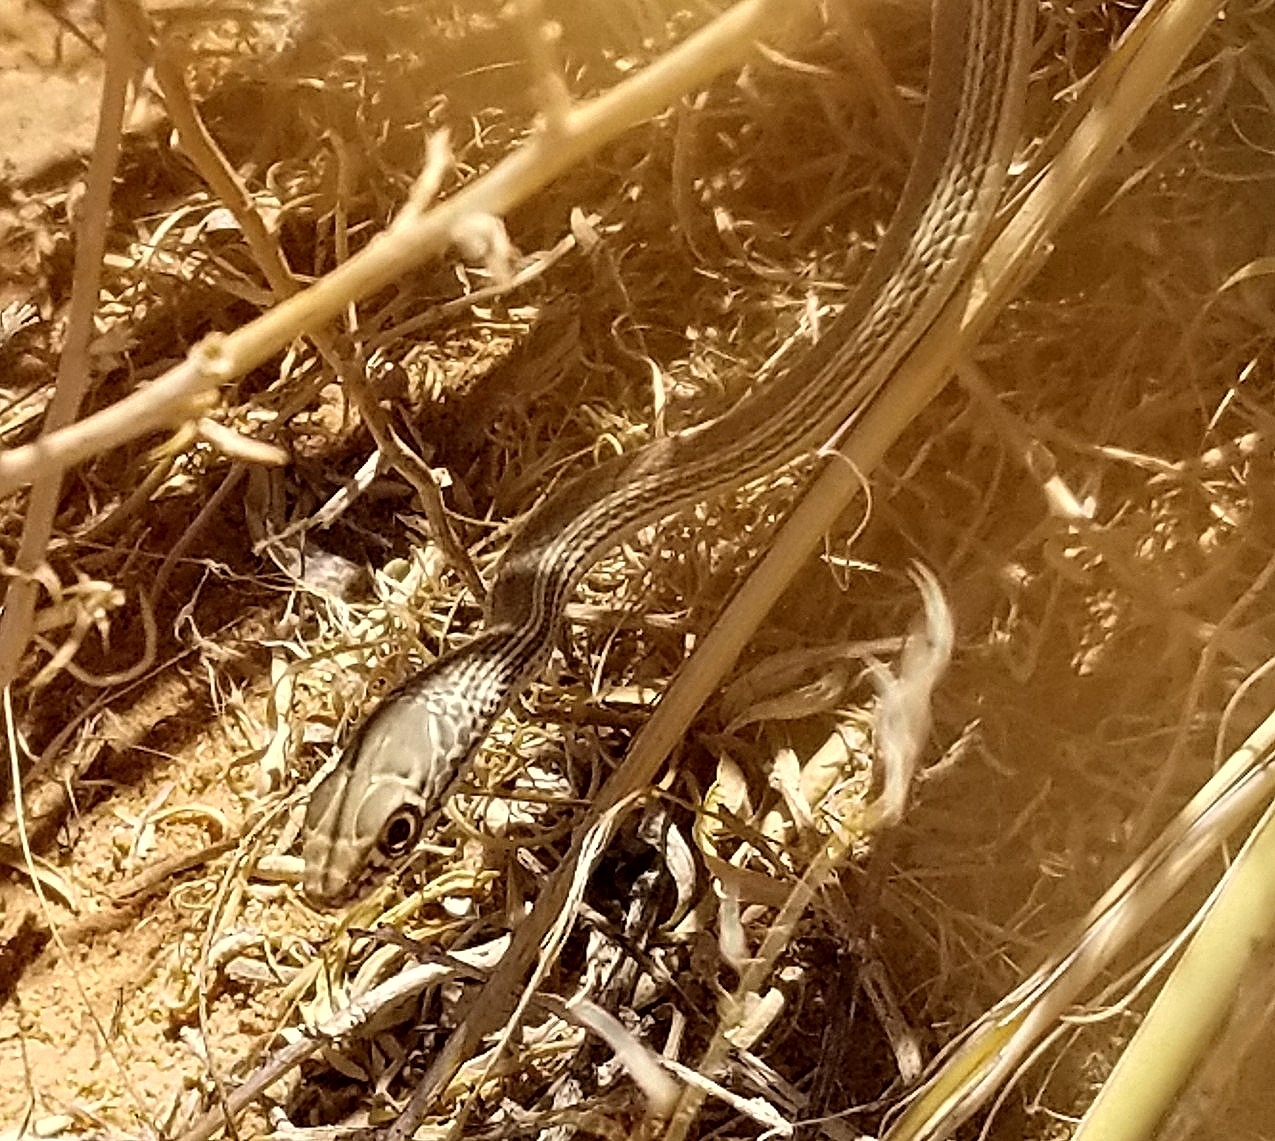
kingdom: Animalia
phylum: Chordata
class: Squamata
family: Colubridae
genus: Masticophis
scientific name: Masticophis taeniatus
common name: Striped whipsnake
